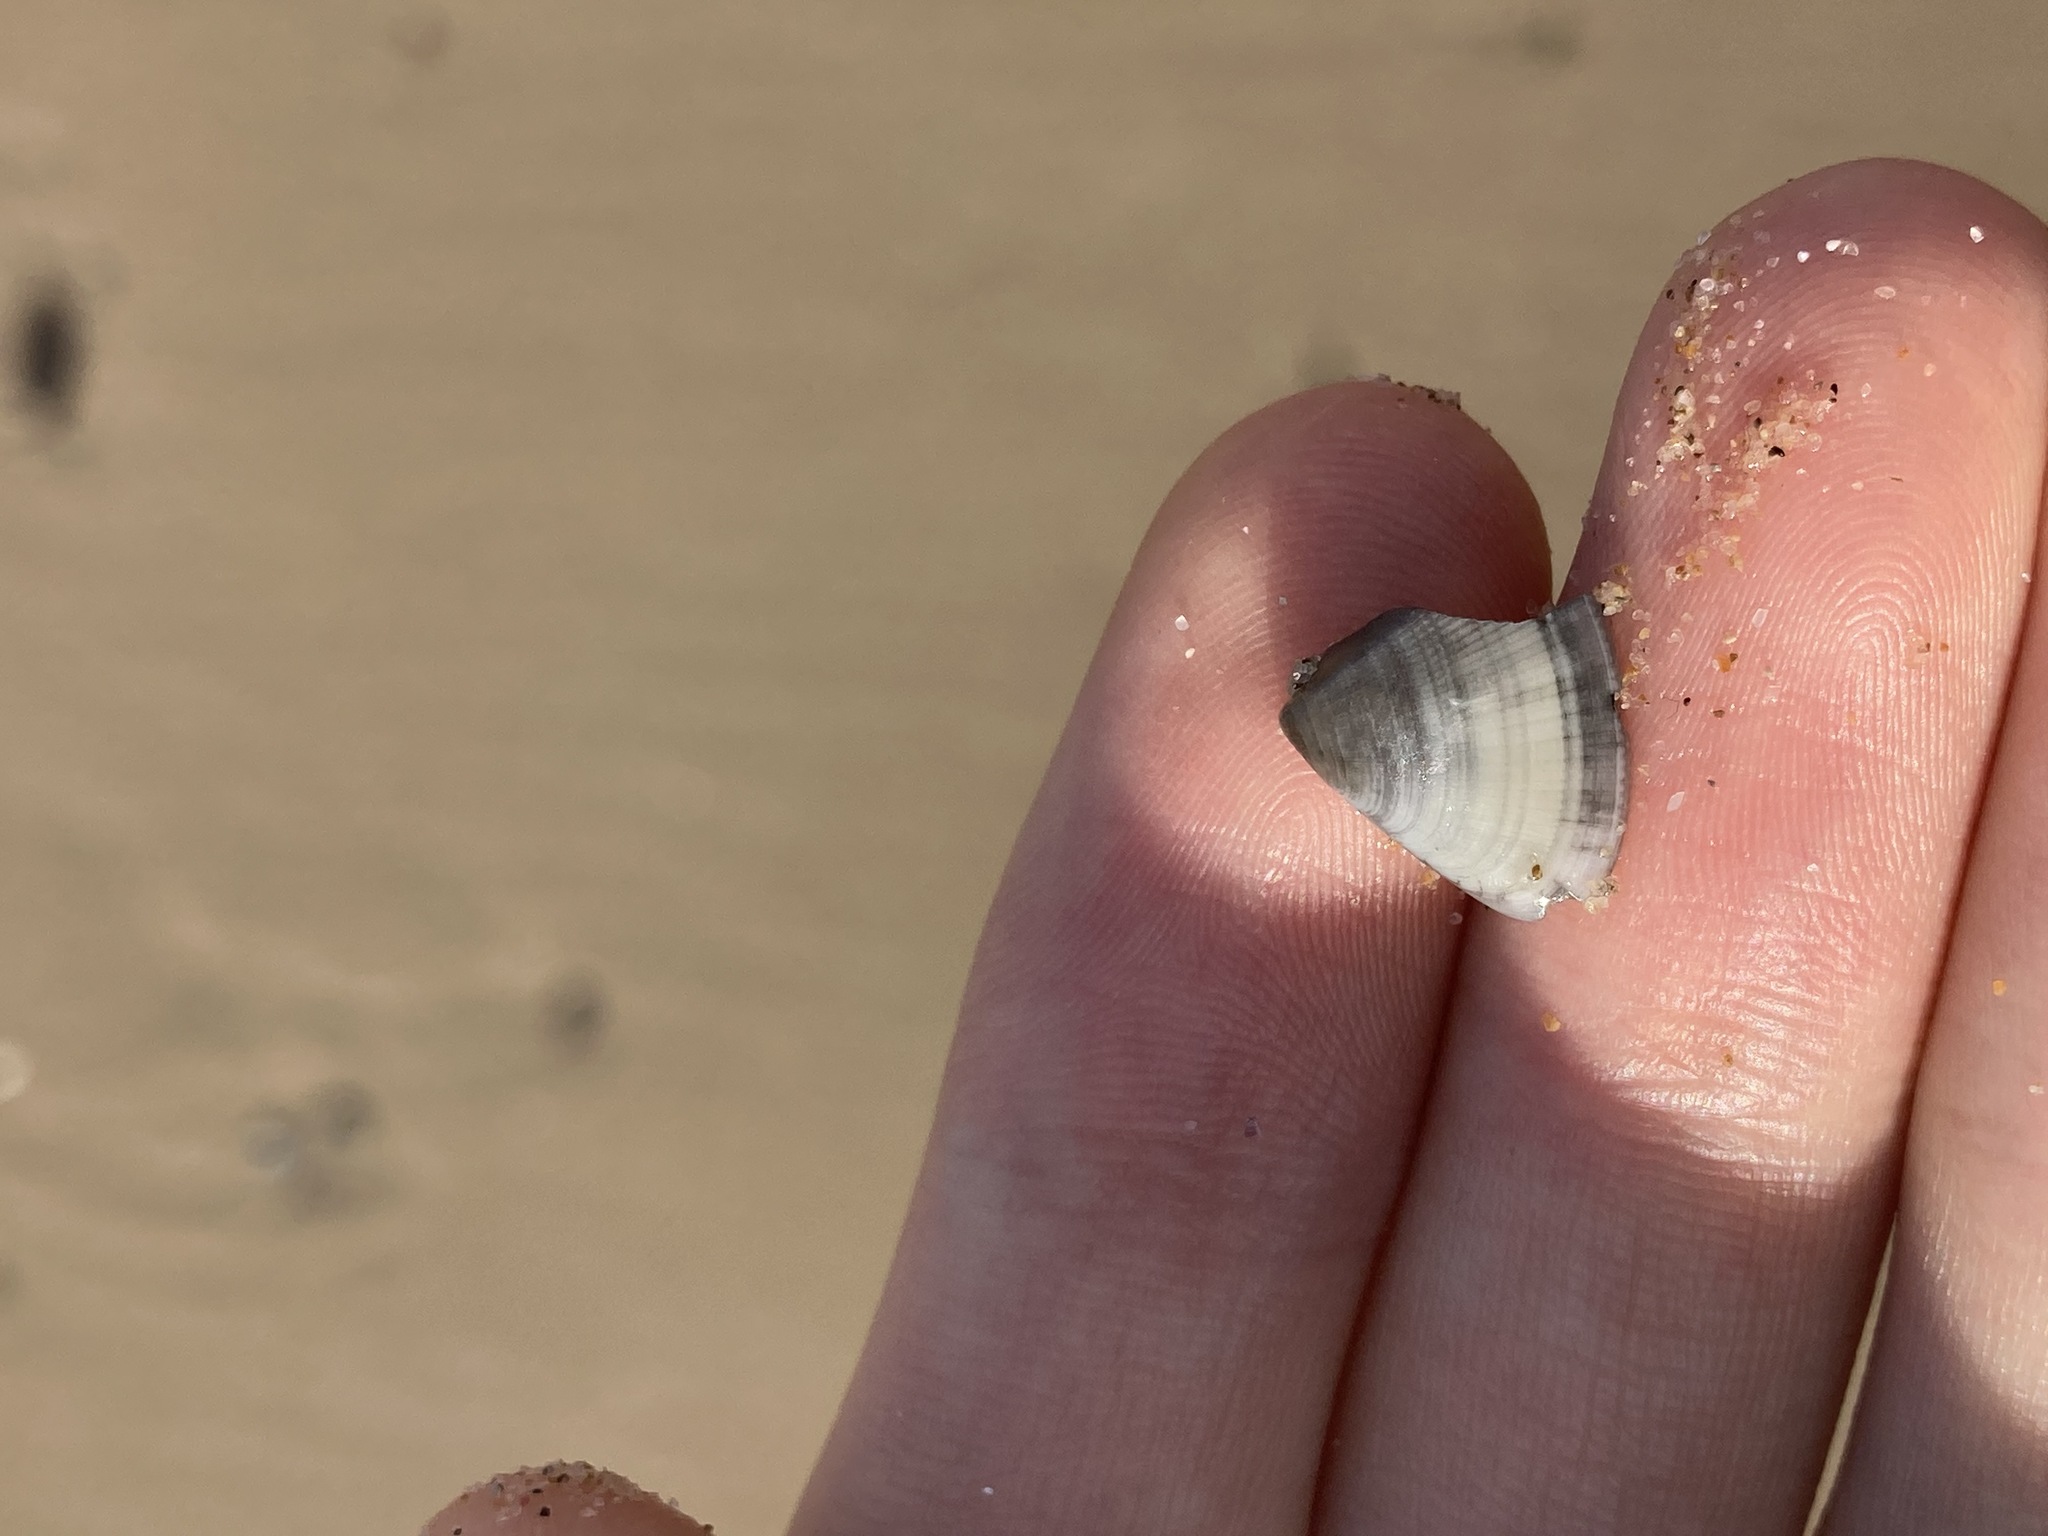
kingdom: Animalia
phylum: Mollusca
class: Bivalvia
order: Cardiida
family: Donacidae
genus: Donax
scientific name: Donax brazieri
